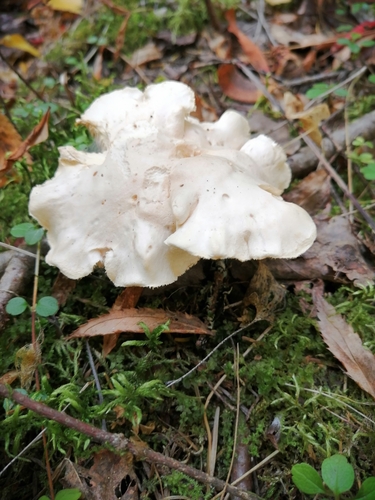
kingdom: Fungi
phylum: Basidiomycota
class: Agaricomycetes
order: Cantharellales
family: Hydnaceae
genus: Hydnum
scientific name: Hydnum repandum
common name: Wood hedgehog
